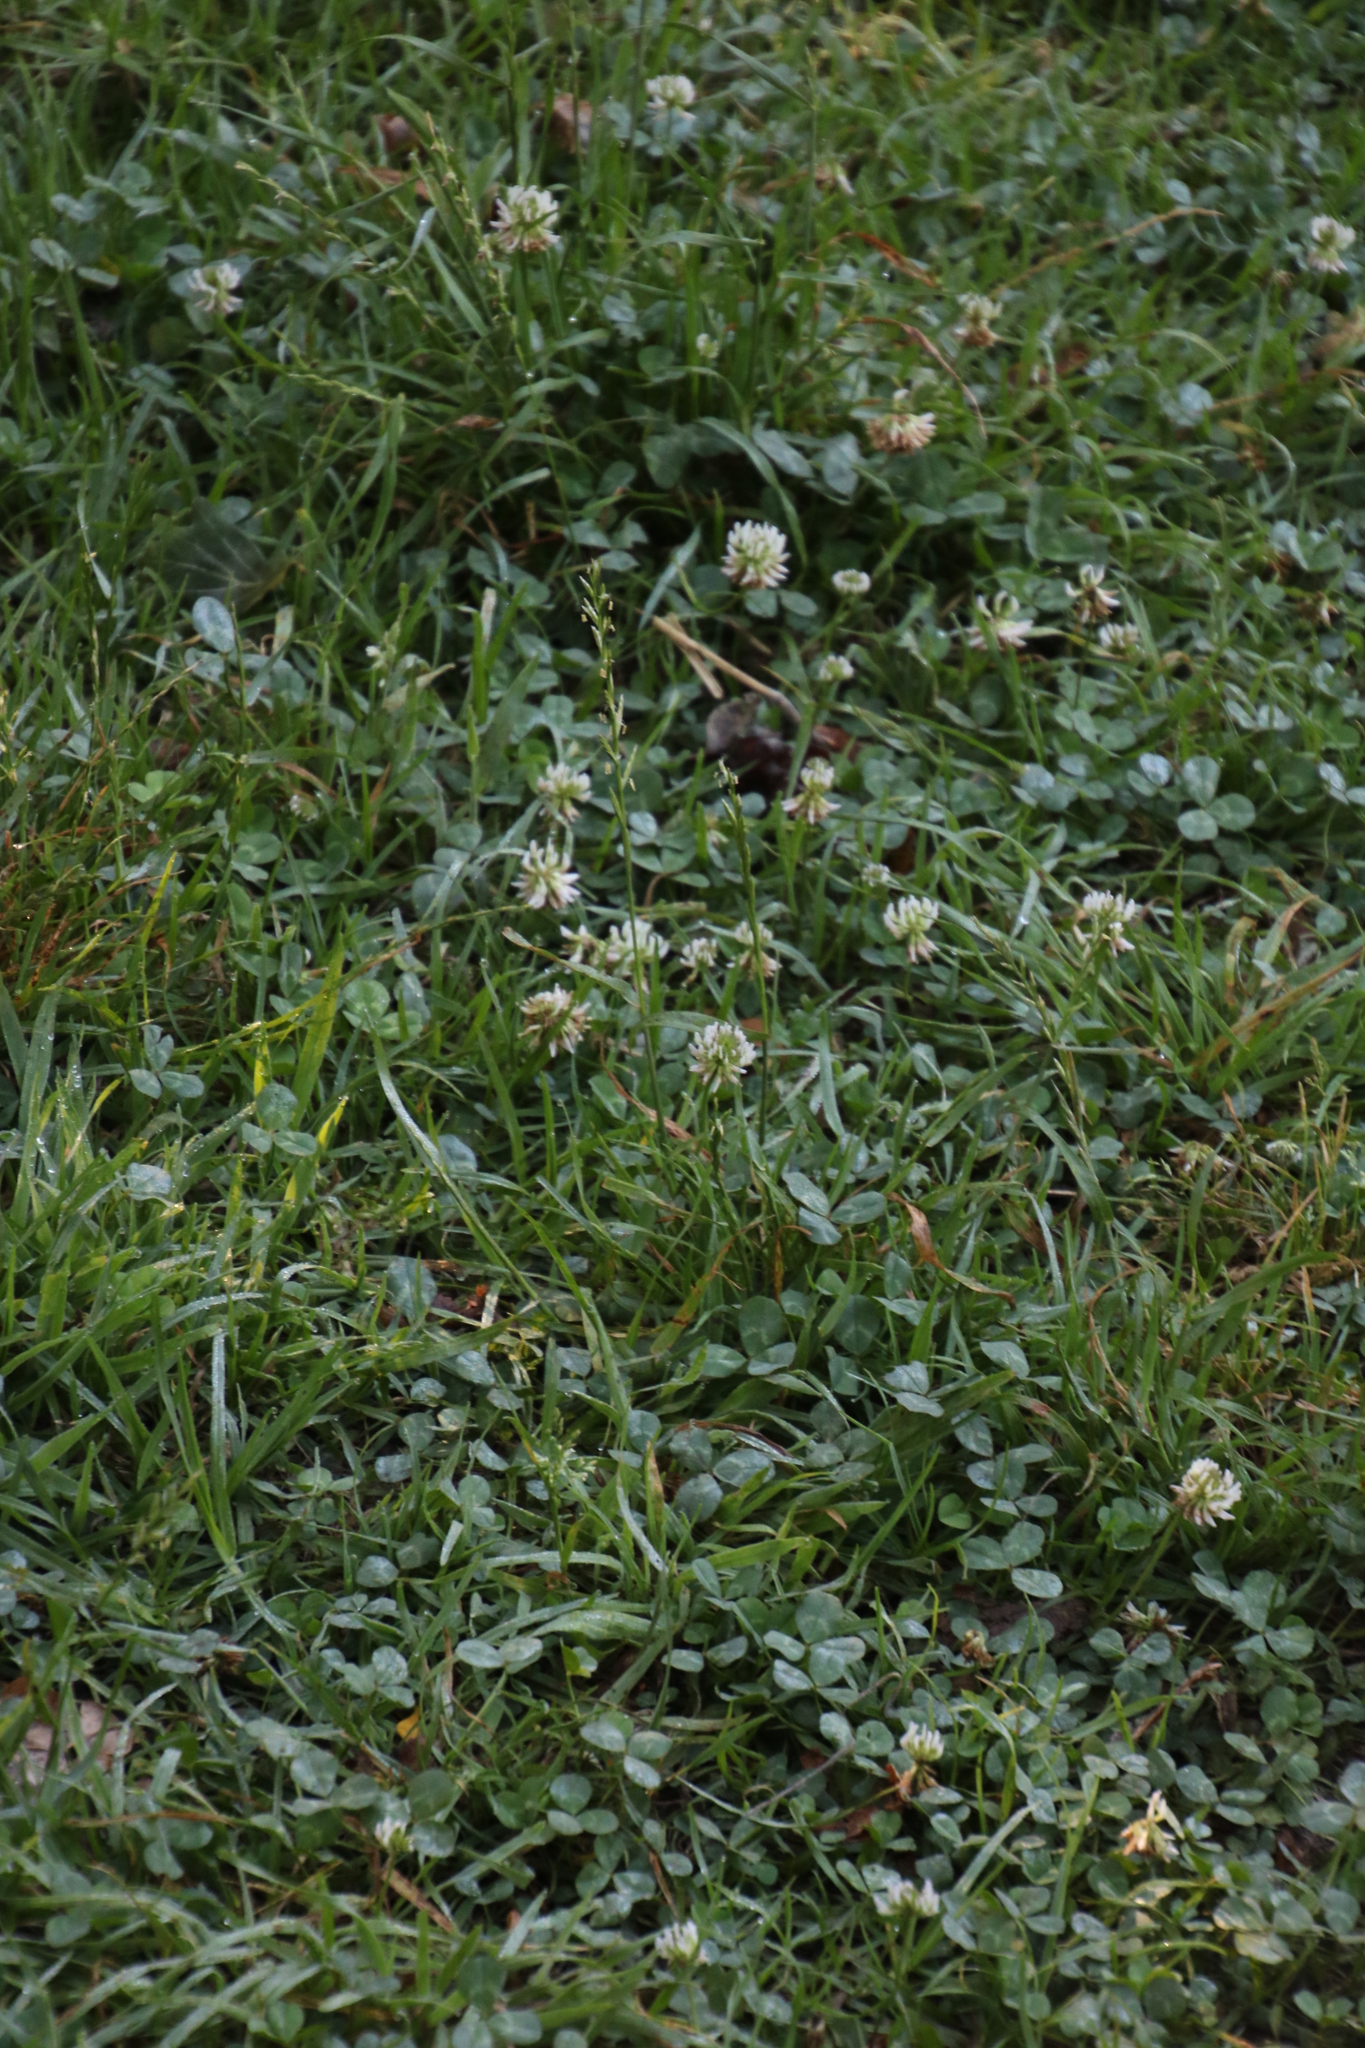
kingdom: Plantae
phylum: Tracheophyta
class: Magnoliopsida
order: Fabales
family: Fabaceae
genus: Trifolium
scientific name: Trifolium repens
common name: White clover
